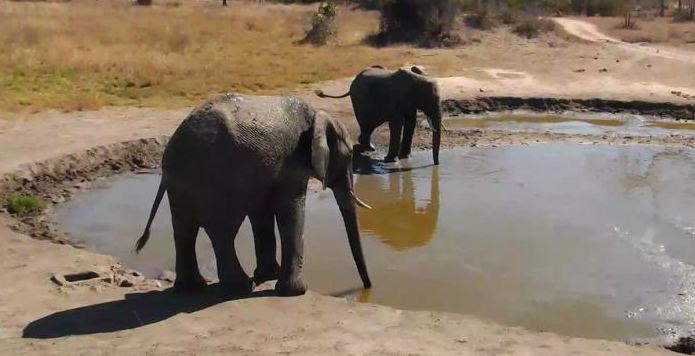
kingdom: Animalia
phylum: Chordata
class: Mammalia
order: Proboscidea
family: Elephantidae
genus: Loxodonta
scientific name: Loxodonta africana
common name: African elephant
